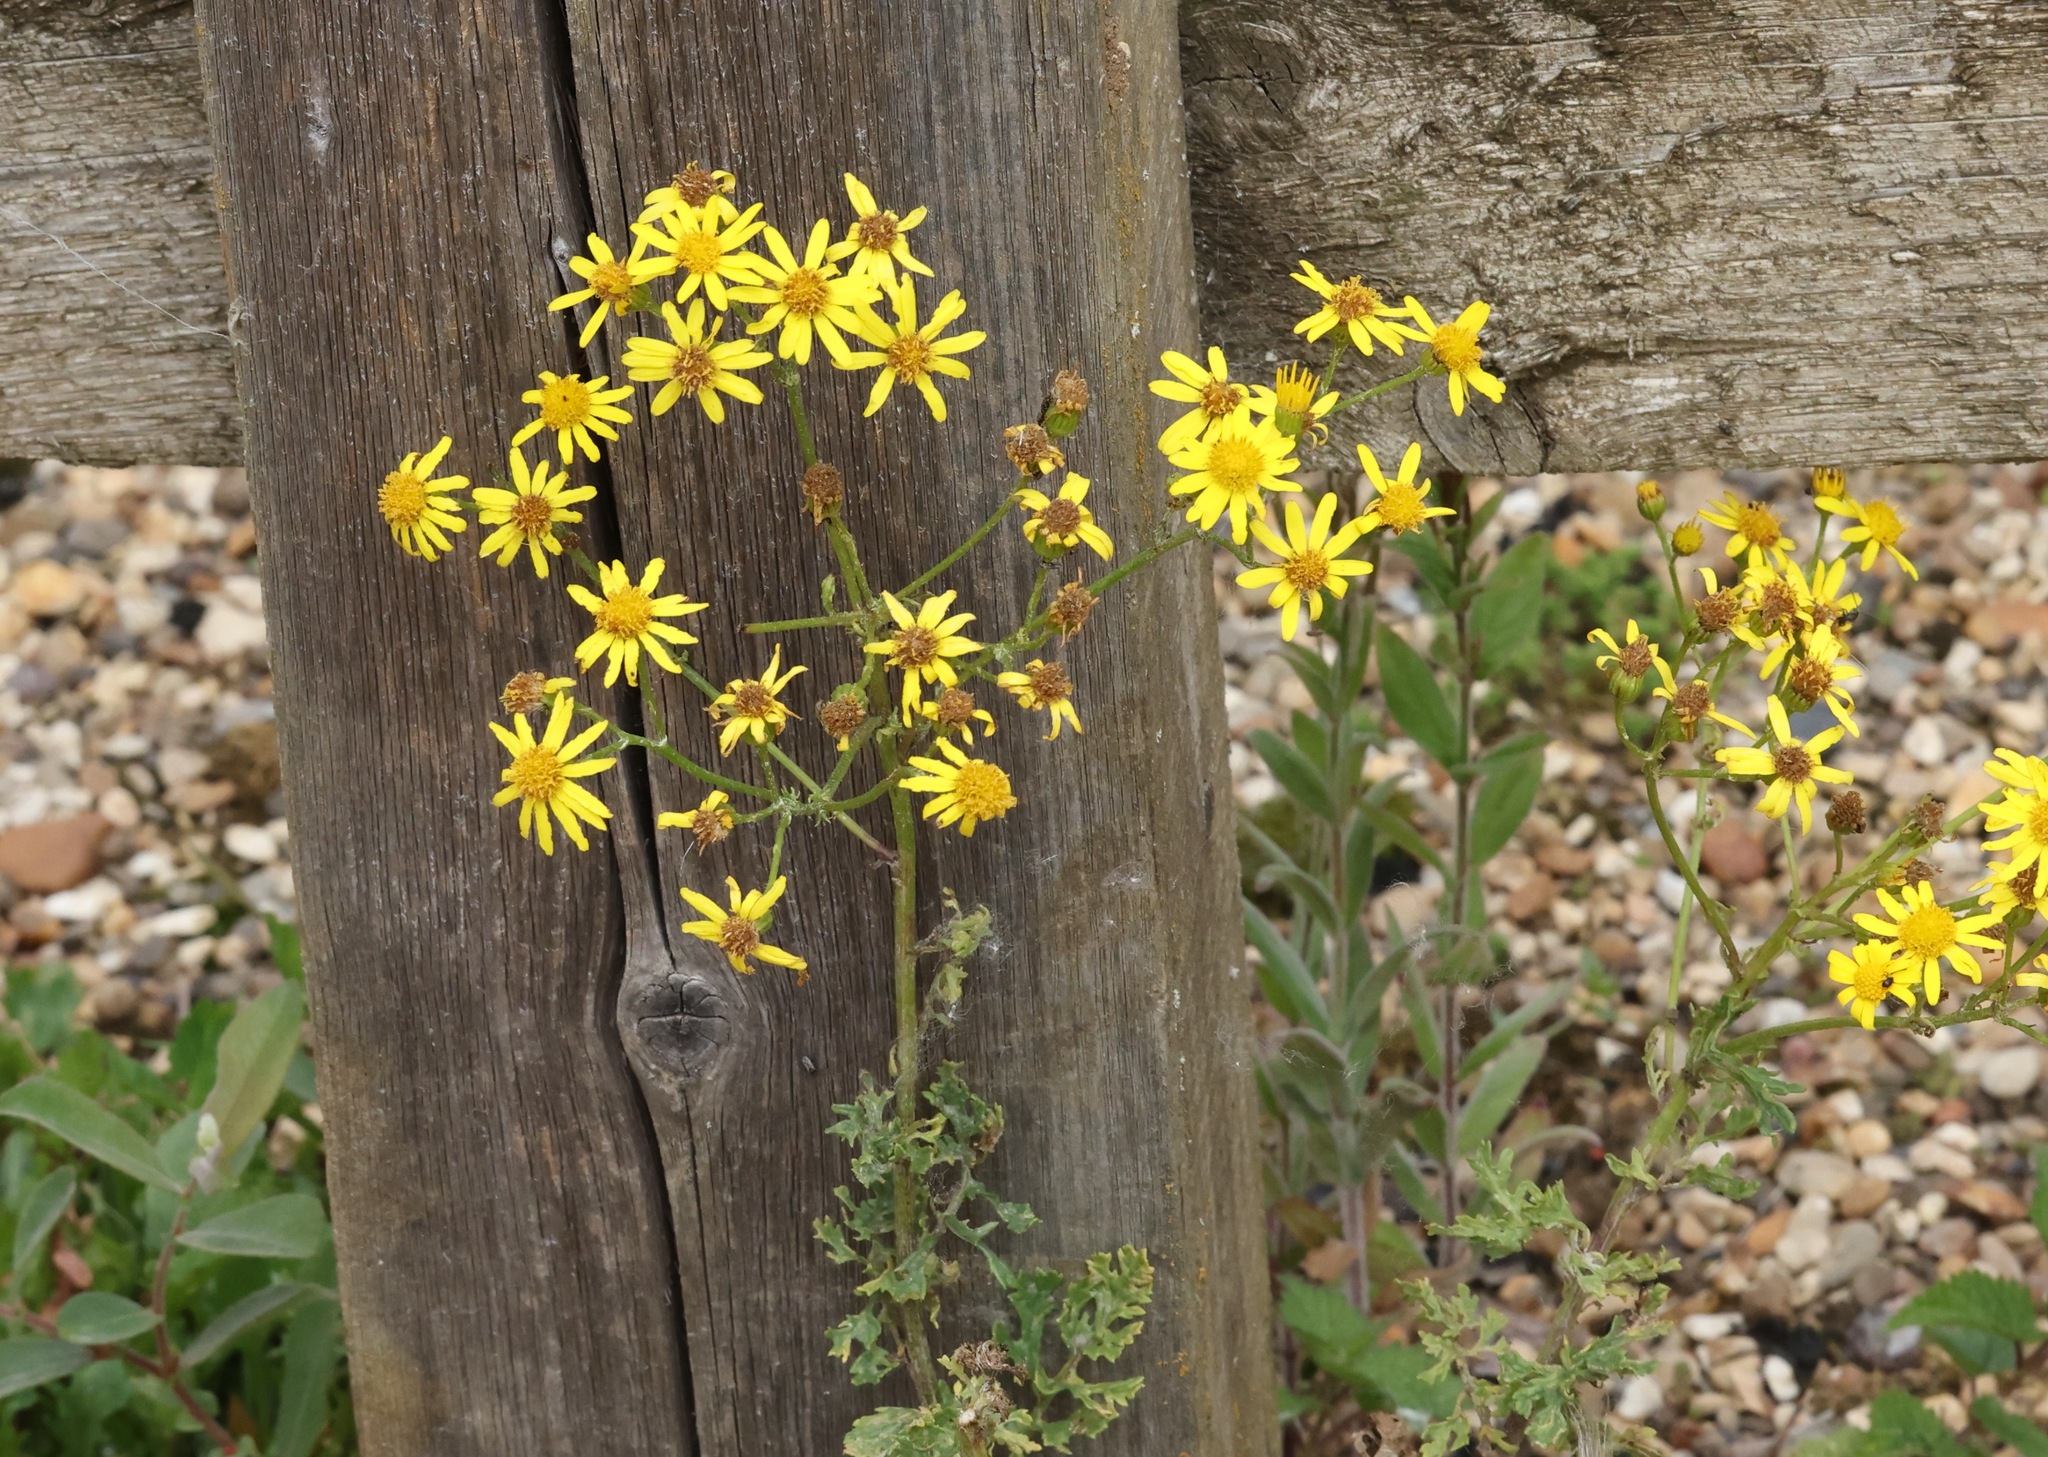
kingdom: Plantae
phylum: Tracheophyta
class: Magnoliopsida
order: Asterales
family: Asteraceae
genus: Jacobaea
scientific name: Jacobaea vulgaris
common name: Stinking willie
